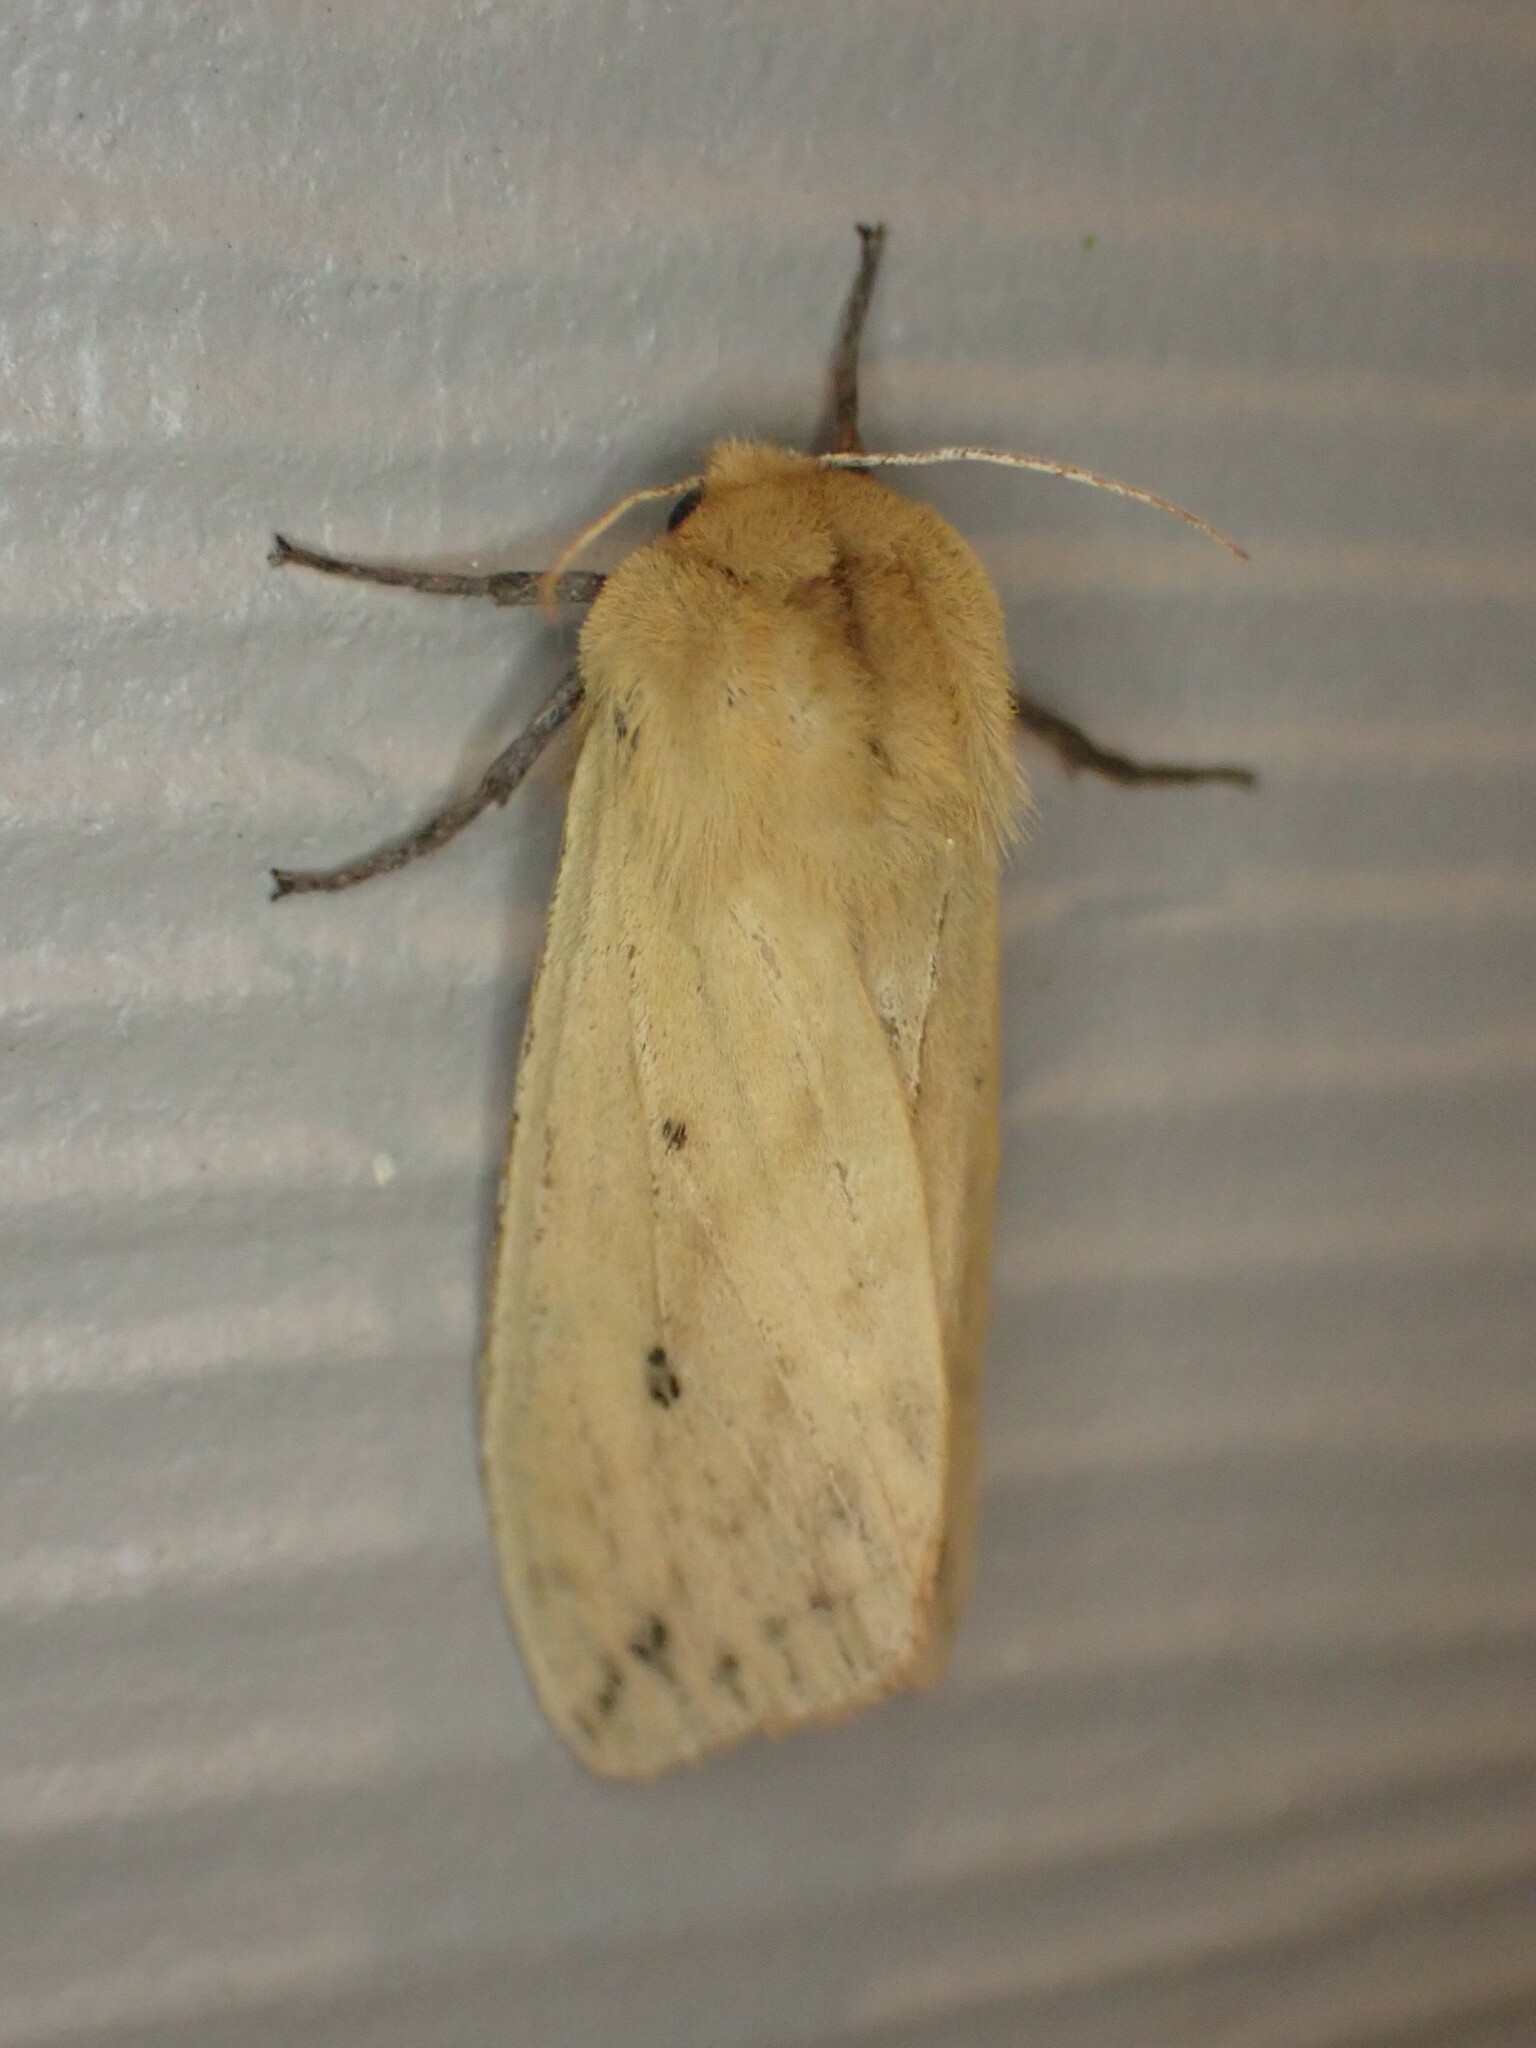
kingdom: Animalia
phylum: Arthropoda
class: Insecta
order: Lepidoptera
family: Erebidae
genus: Pyrrharctia
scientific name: Pyrrharctia isabella
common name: Isabella tiger moth
